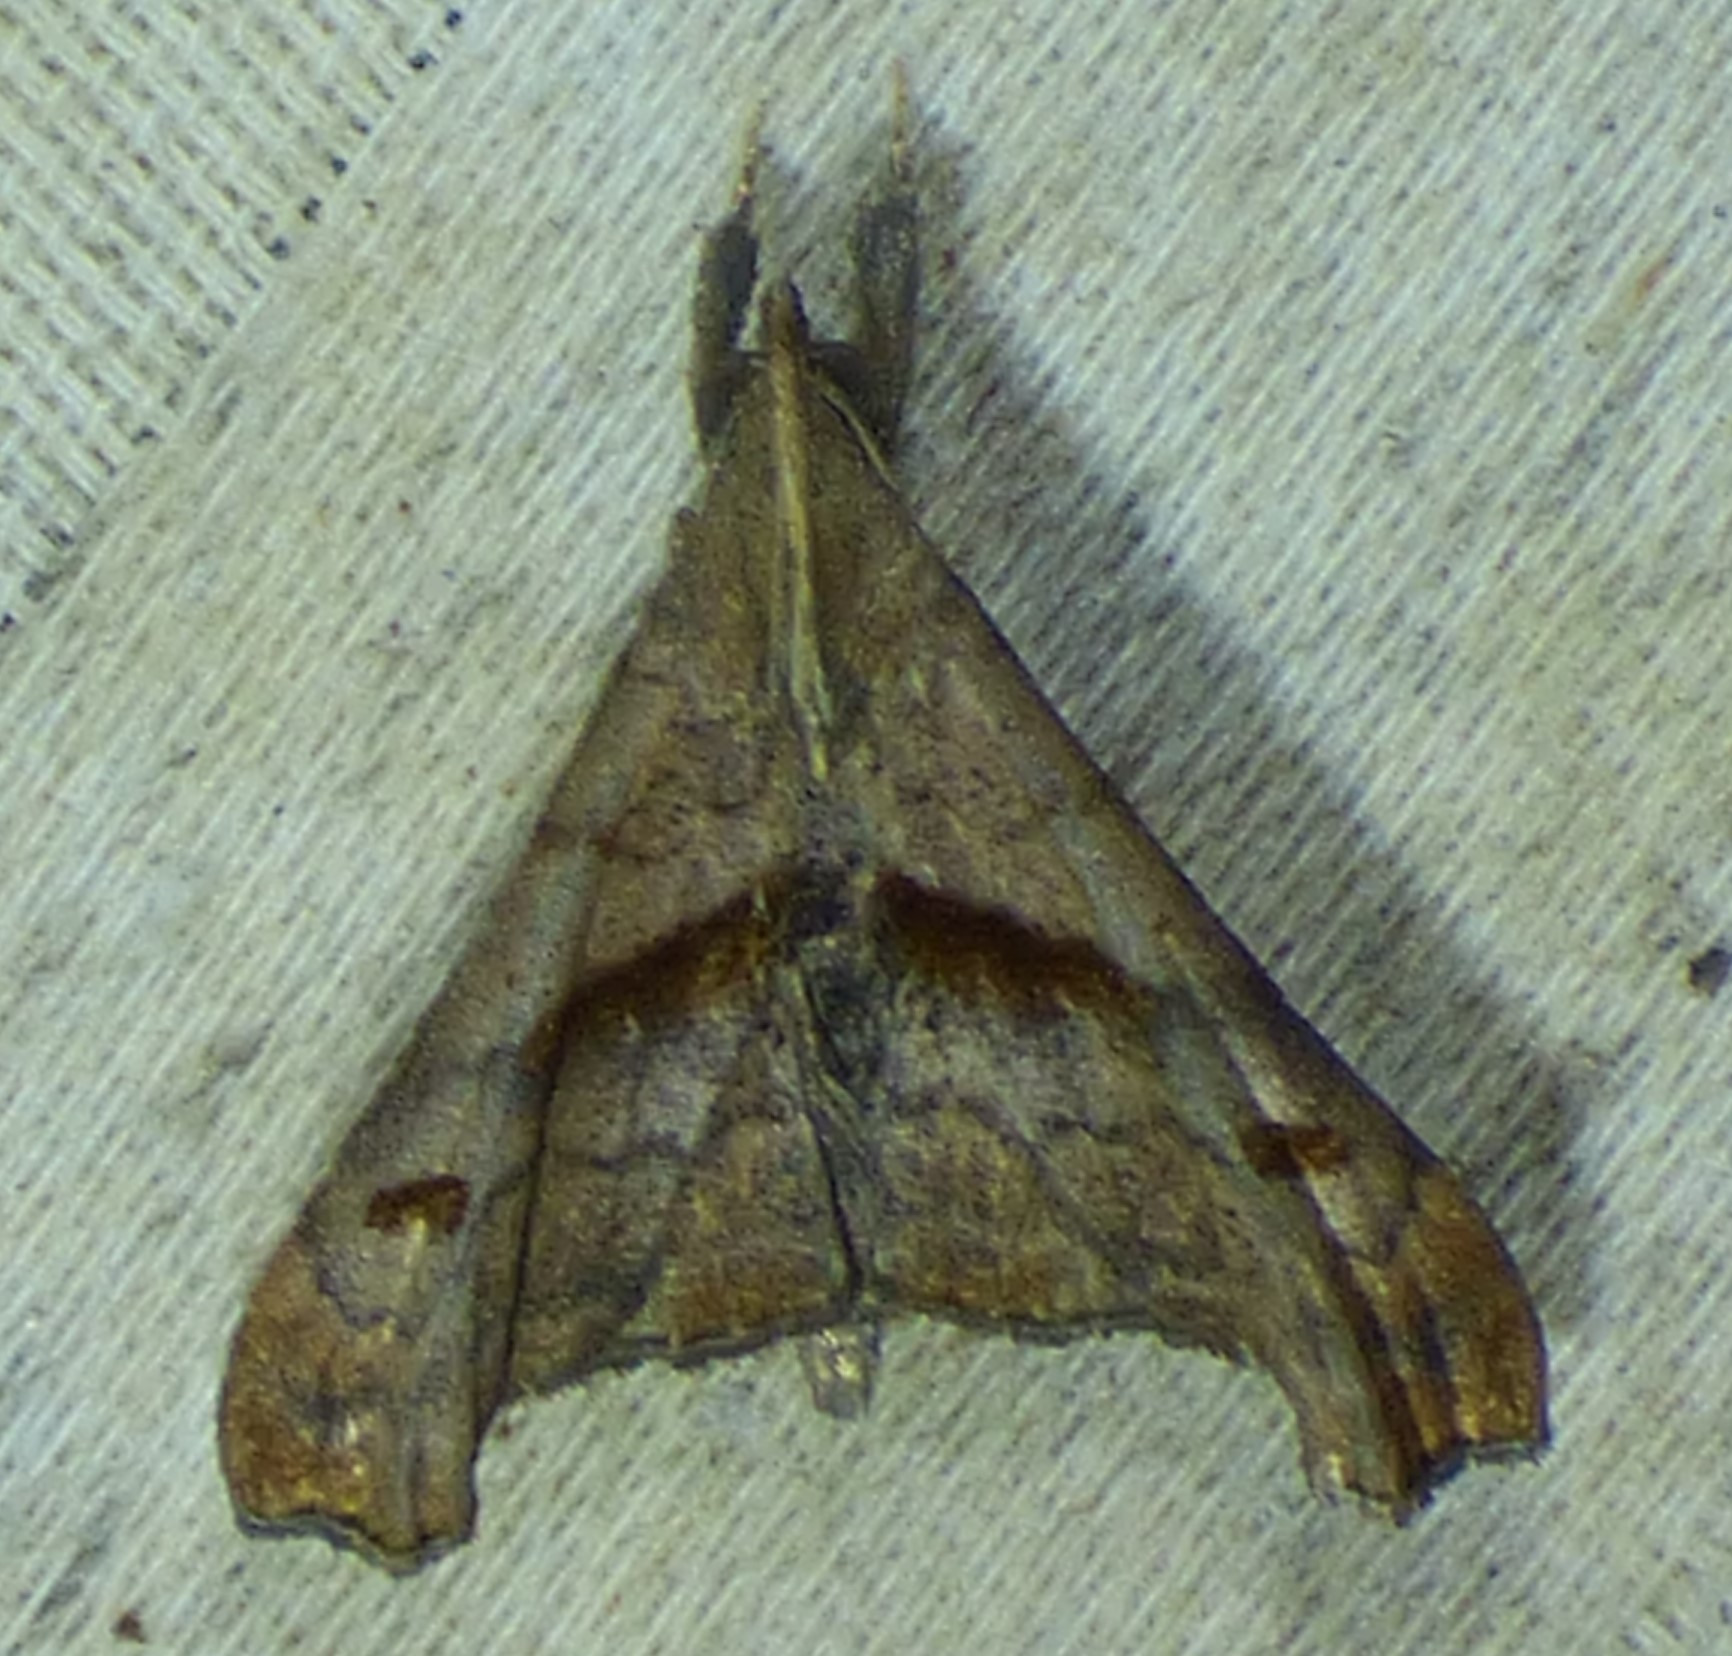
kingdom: Animalia
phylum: Arthropoda
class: Insecta
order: Lepidoptera
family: Erebidae
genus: Palthis
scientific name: Palthis angulalis
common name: Dark-spotted palthis moth
